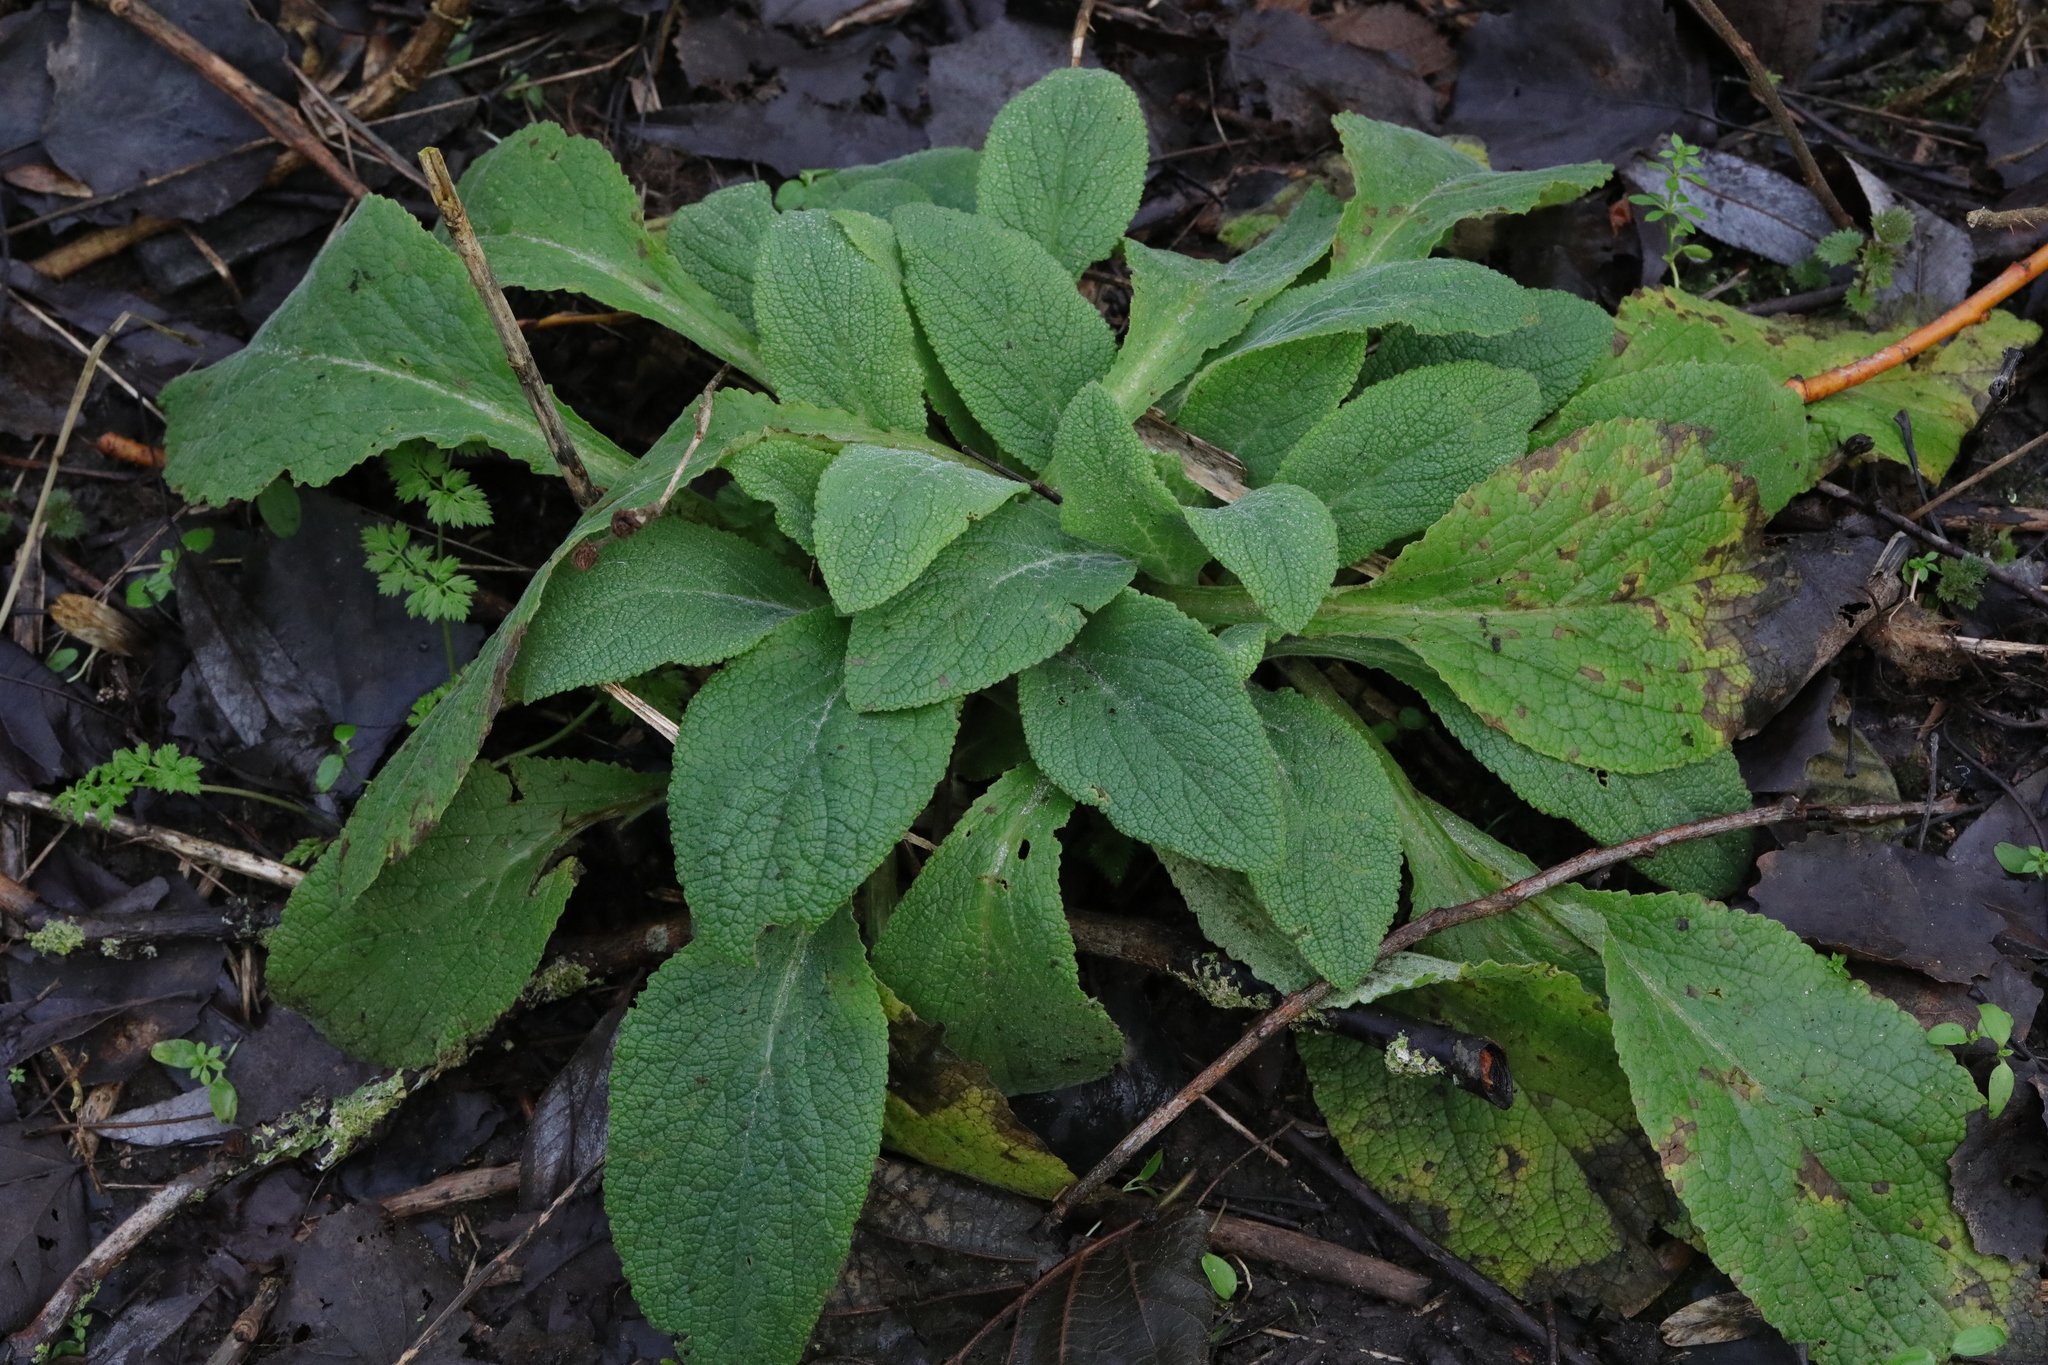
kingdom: Plantae
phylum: Tracheophyta
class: Magnoliopsida
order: Lamiales
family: Plantaginaceae
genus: Digitalis
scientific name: Digitalis purpurea
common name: Foxglove
